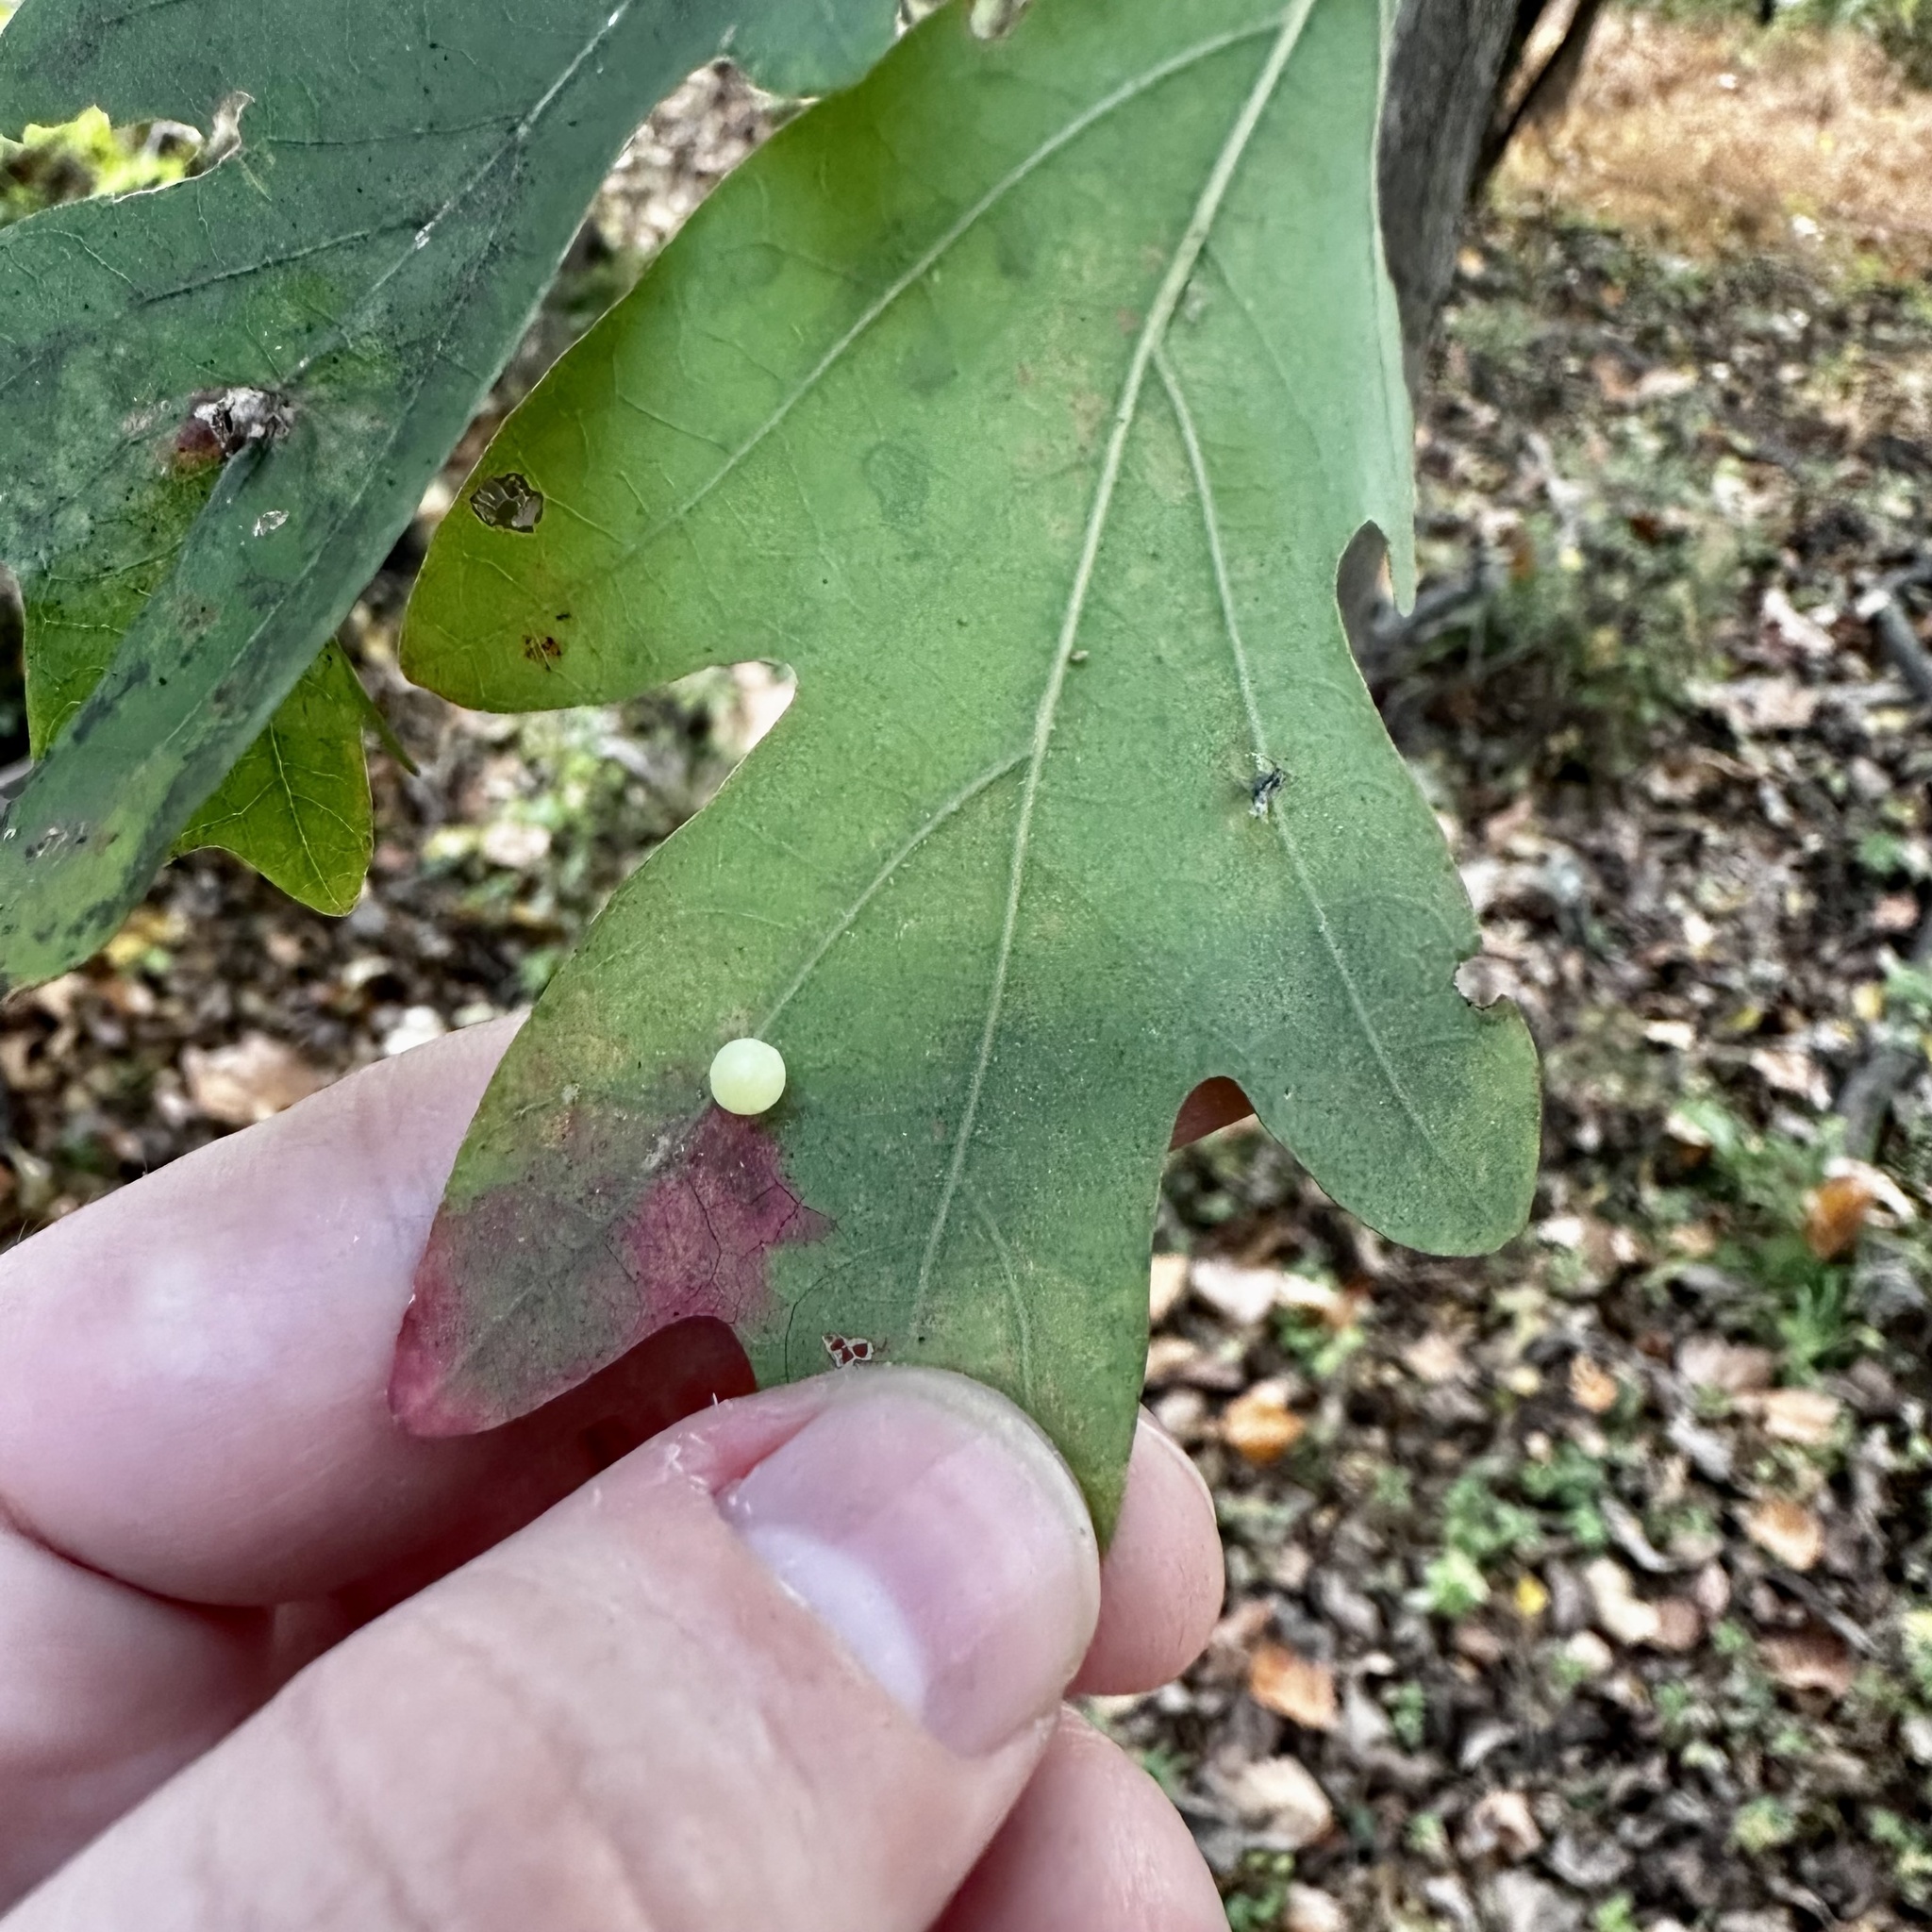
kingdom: Animalia
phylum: Arthropoda
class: Insecta
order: Hymenoptera
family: Cynipidae
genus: Phylloteras
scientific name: Phylloteras
